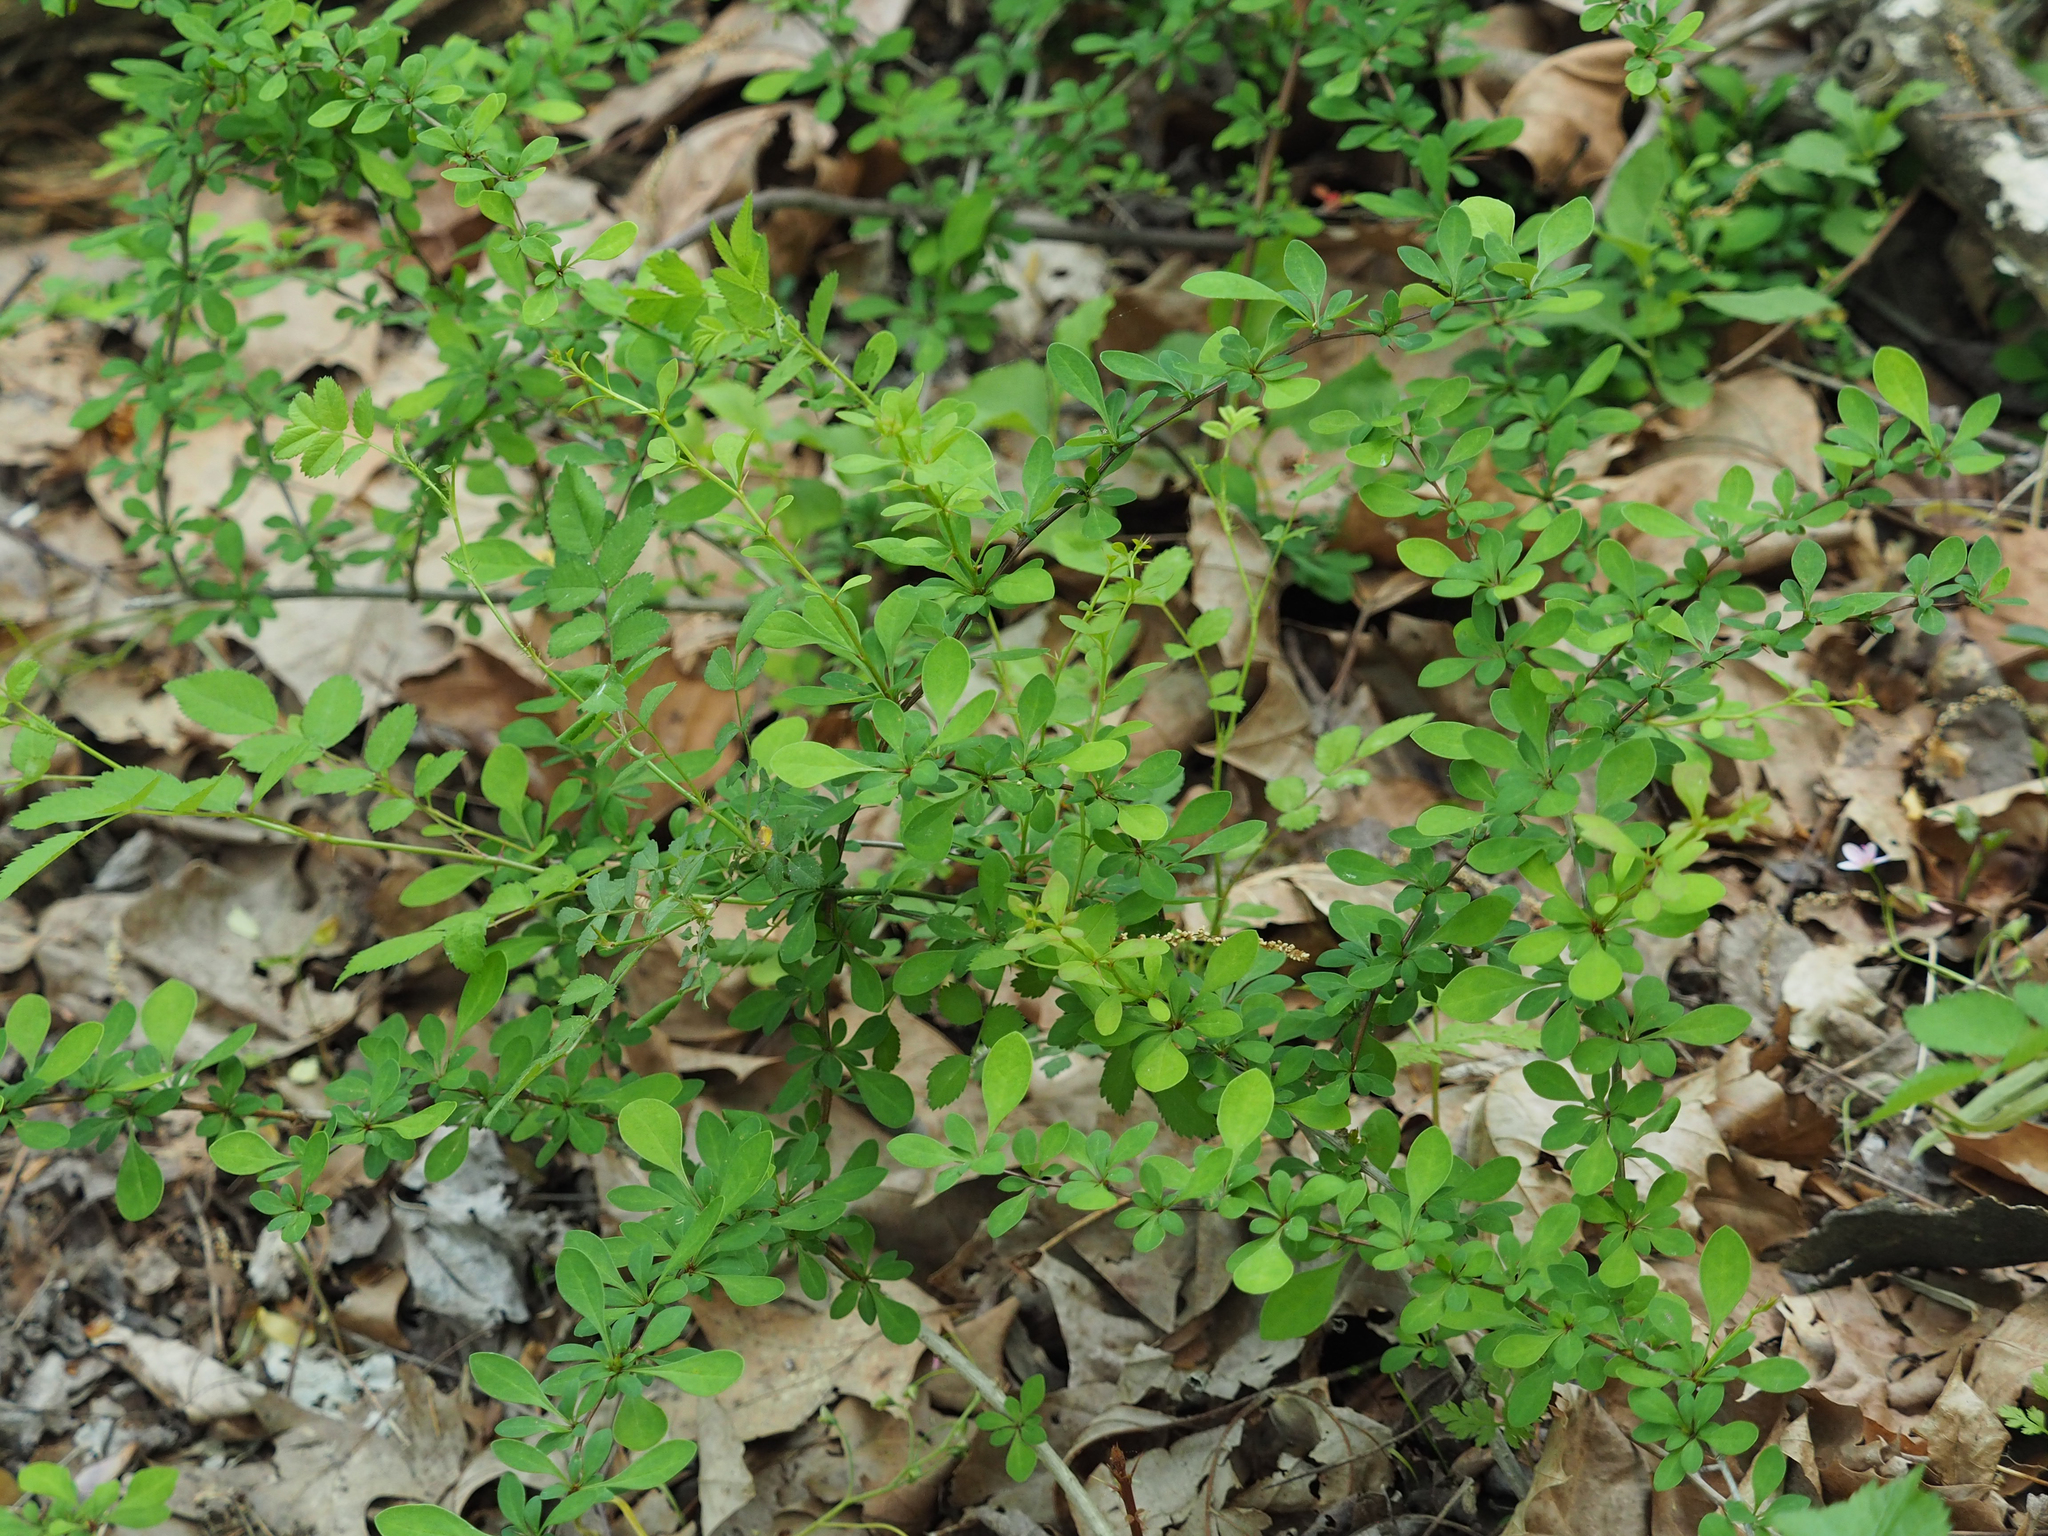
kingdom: Plantae
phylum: Tracheophyta
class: Magnoliopsida
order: Ranunculales
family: Berberidaceae
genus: Berberis
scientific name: Berberis thunbergii
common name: Japanese barberry
